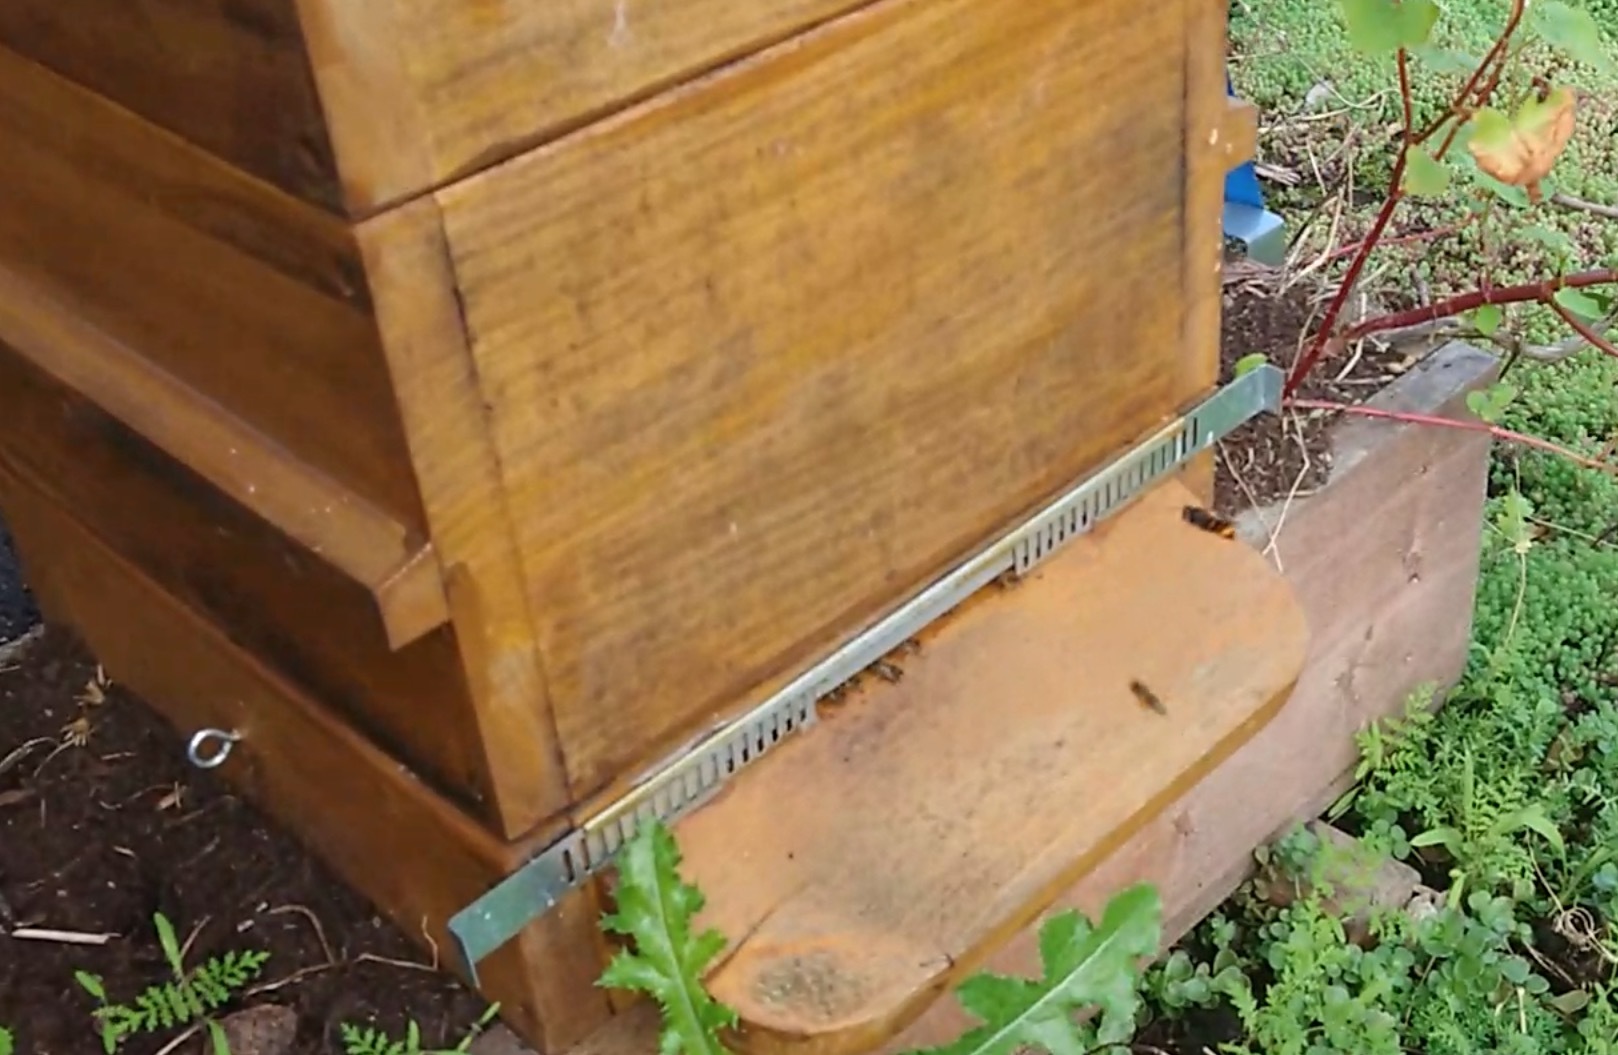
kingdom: Animalia
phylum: Arthropoda
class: Insecta
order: Hymenoptera
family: Vespidae
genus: Vespa
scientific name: Vespa velutina
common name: Asian hornet
